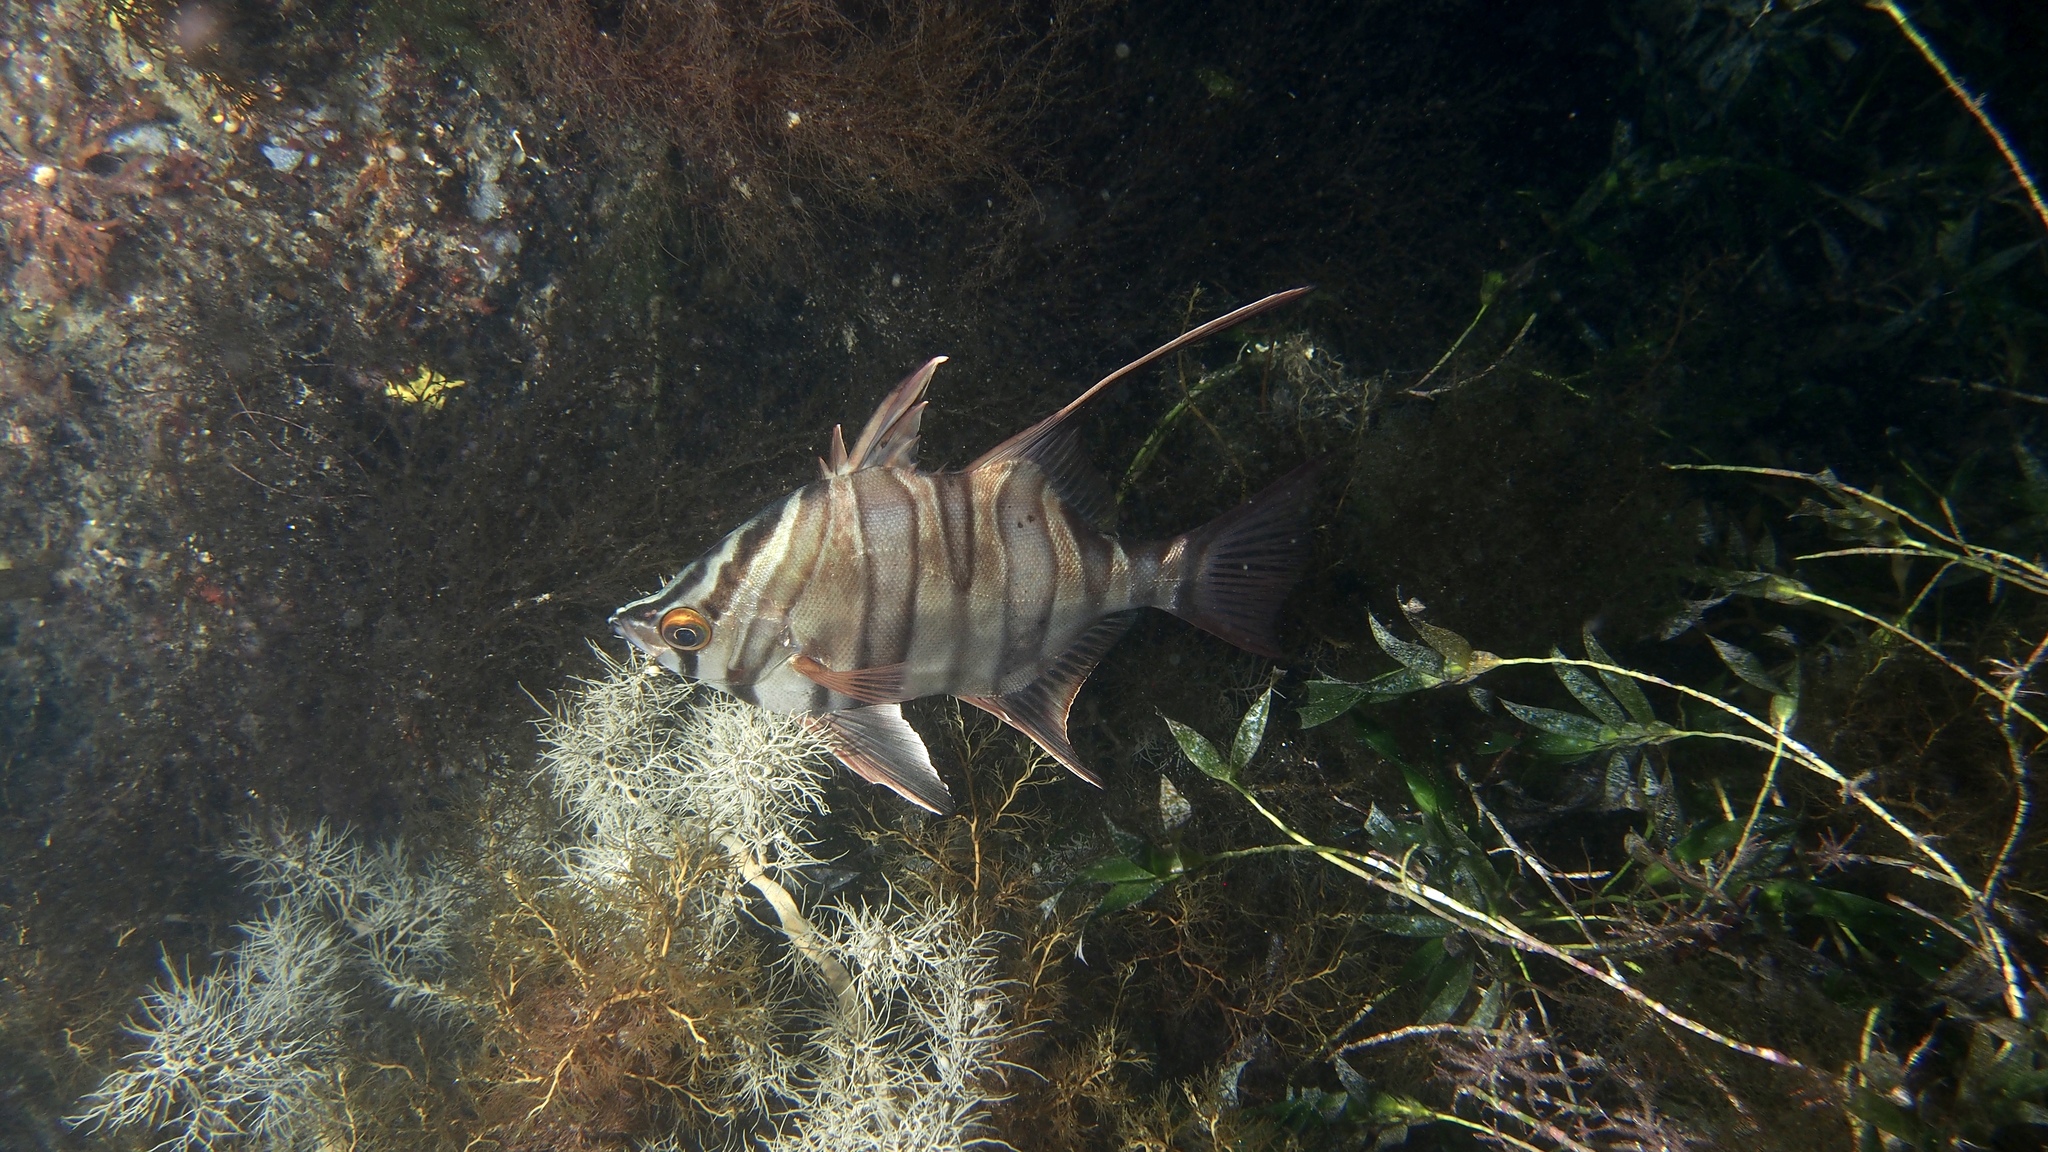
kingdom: Animalia
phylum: Chordata
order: Perciformes
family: Enoplosidae
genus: Enoplosus
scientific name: Enoplosus armatus
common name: Old wife
